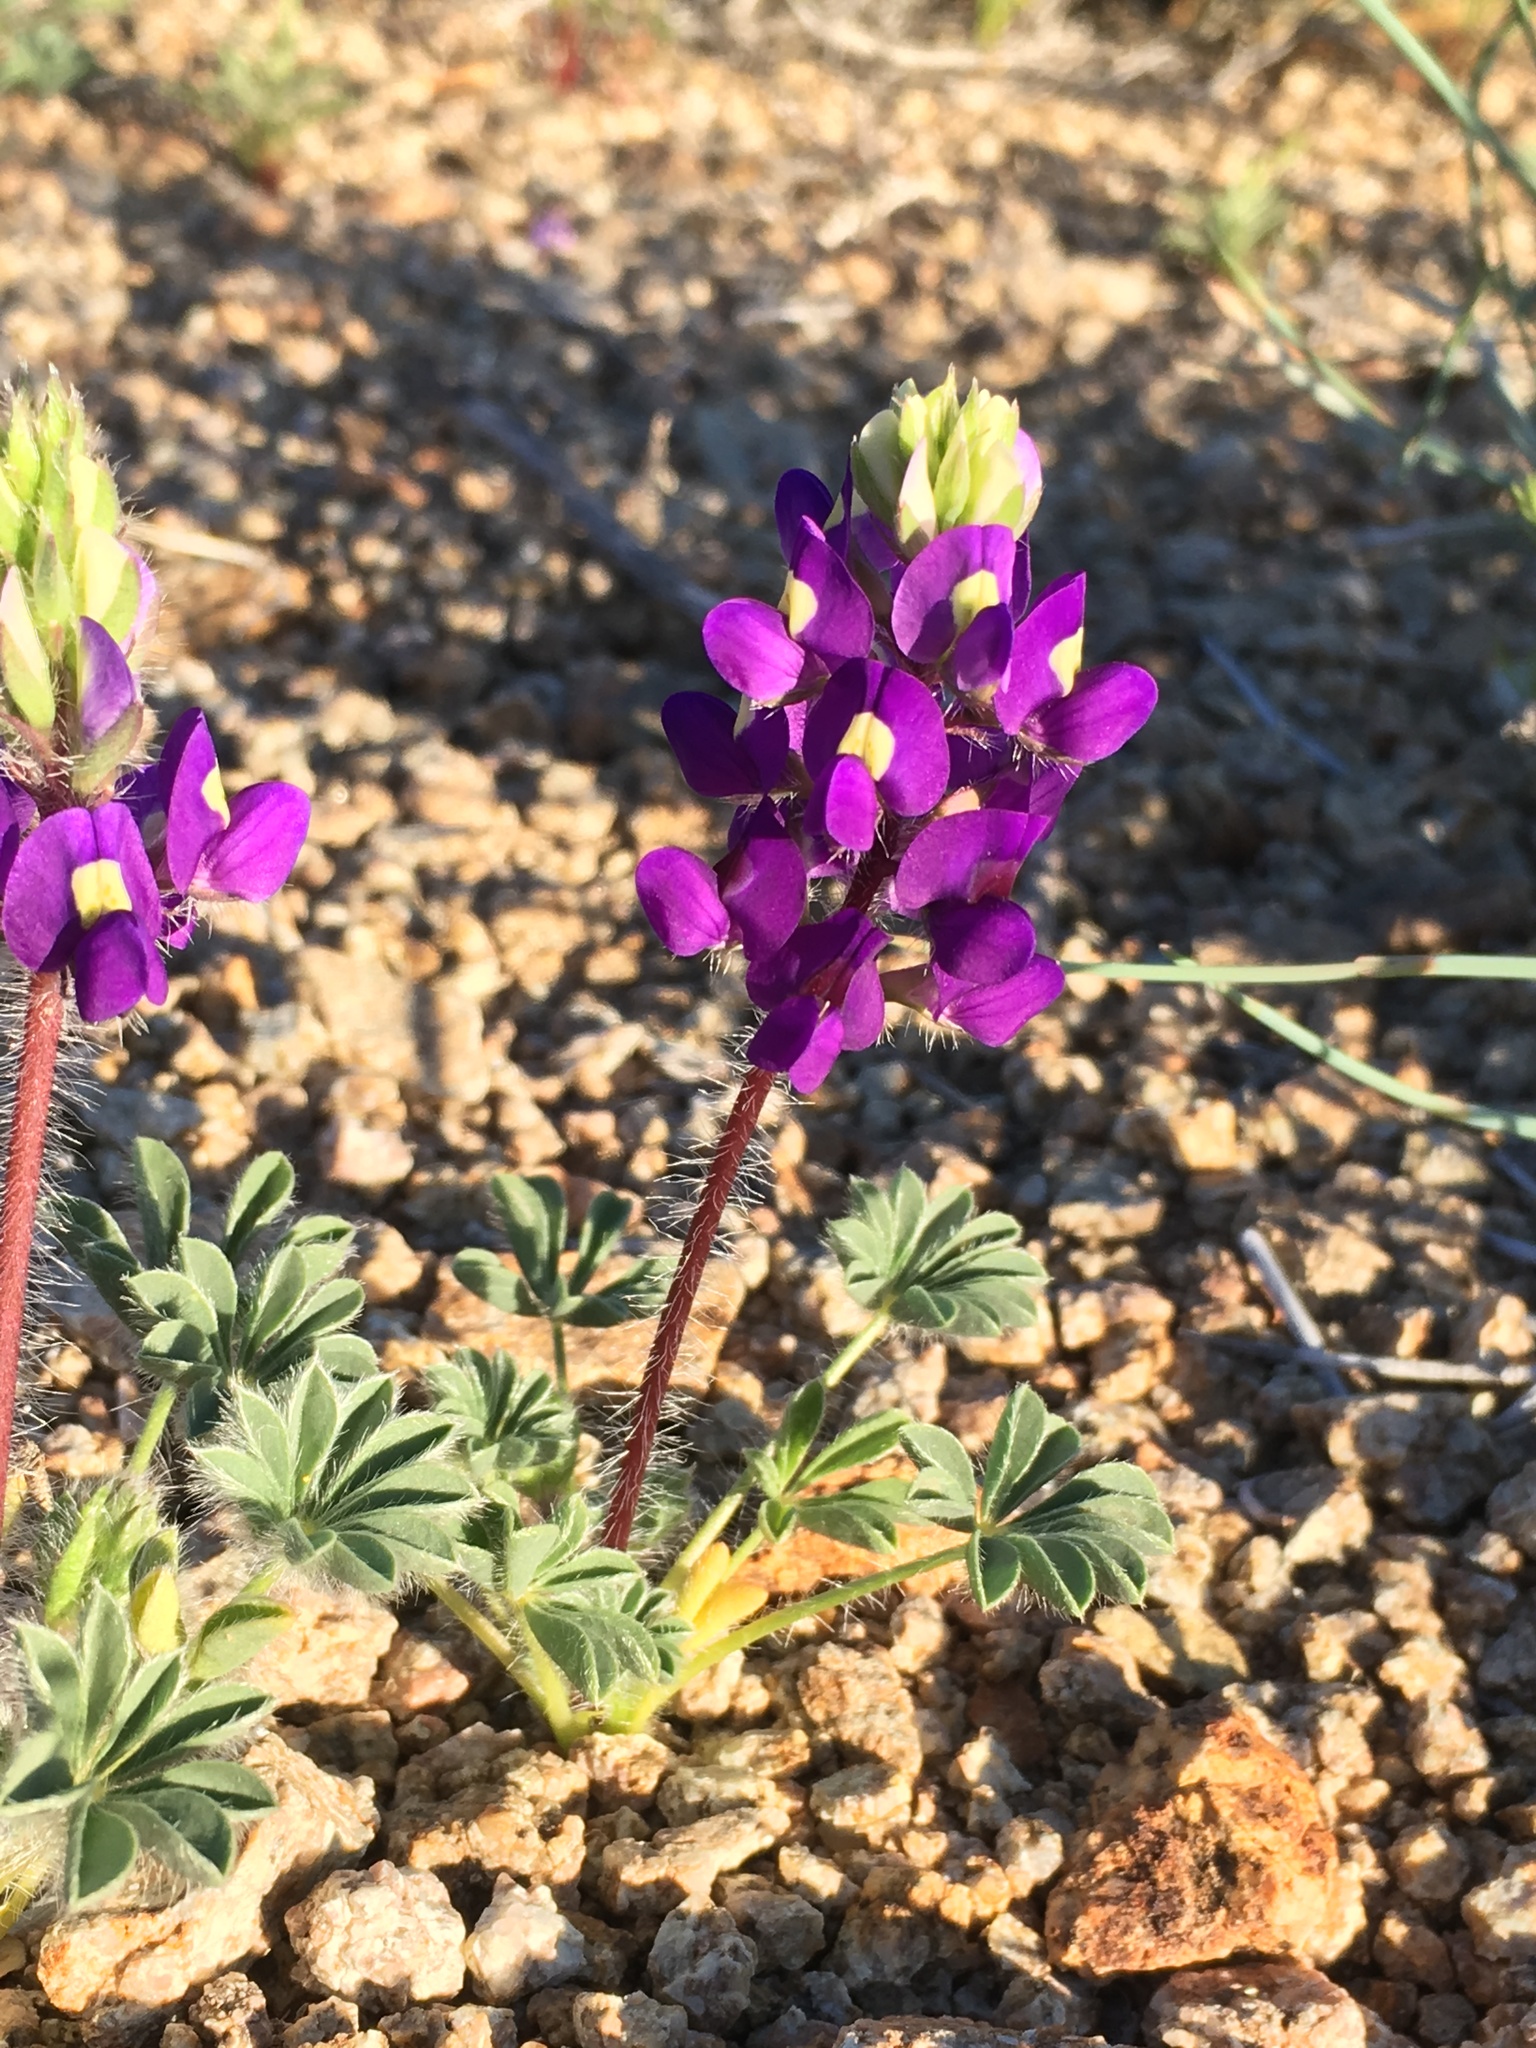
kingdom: Plantae
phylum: Tracheophyta
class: Magnoliopsida
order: Fabales
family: Fabaceae
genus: Lupinus
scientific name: Lupinus flavoculatus
